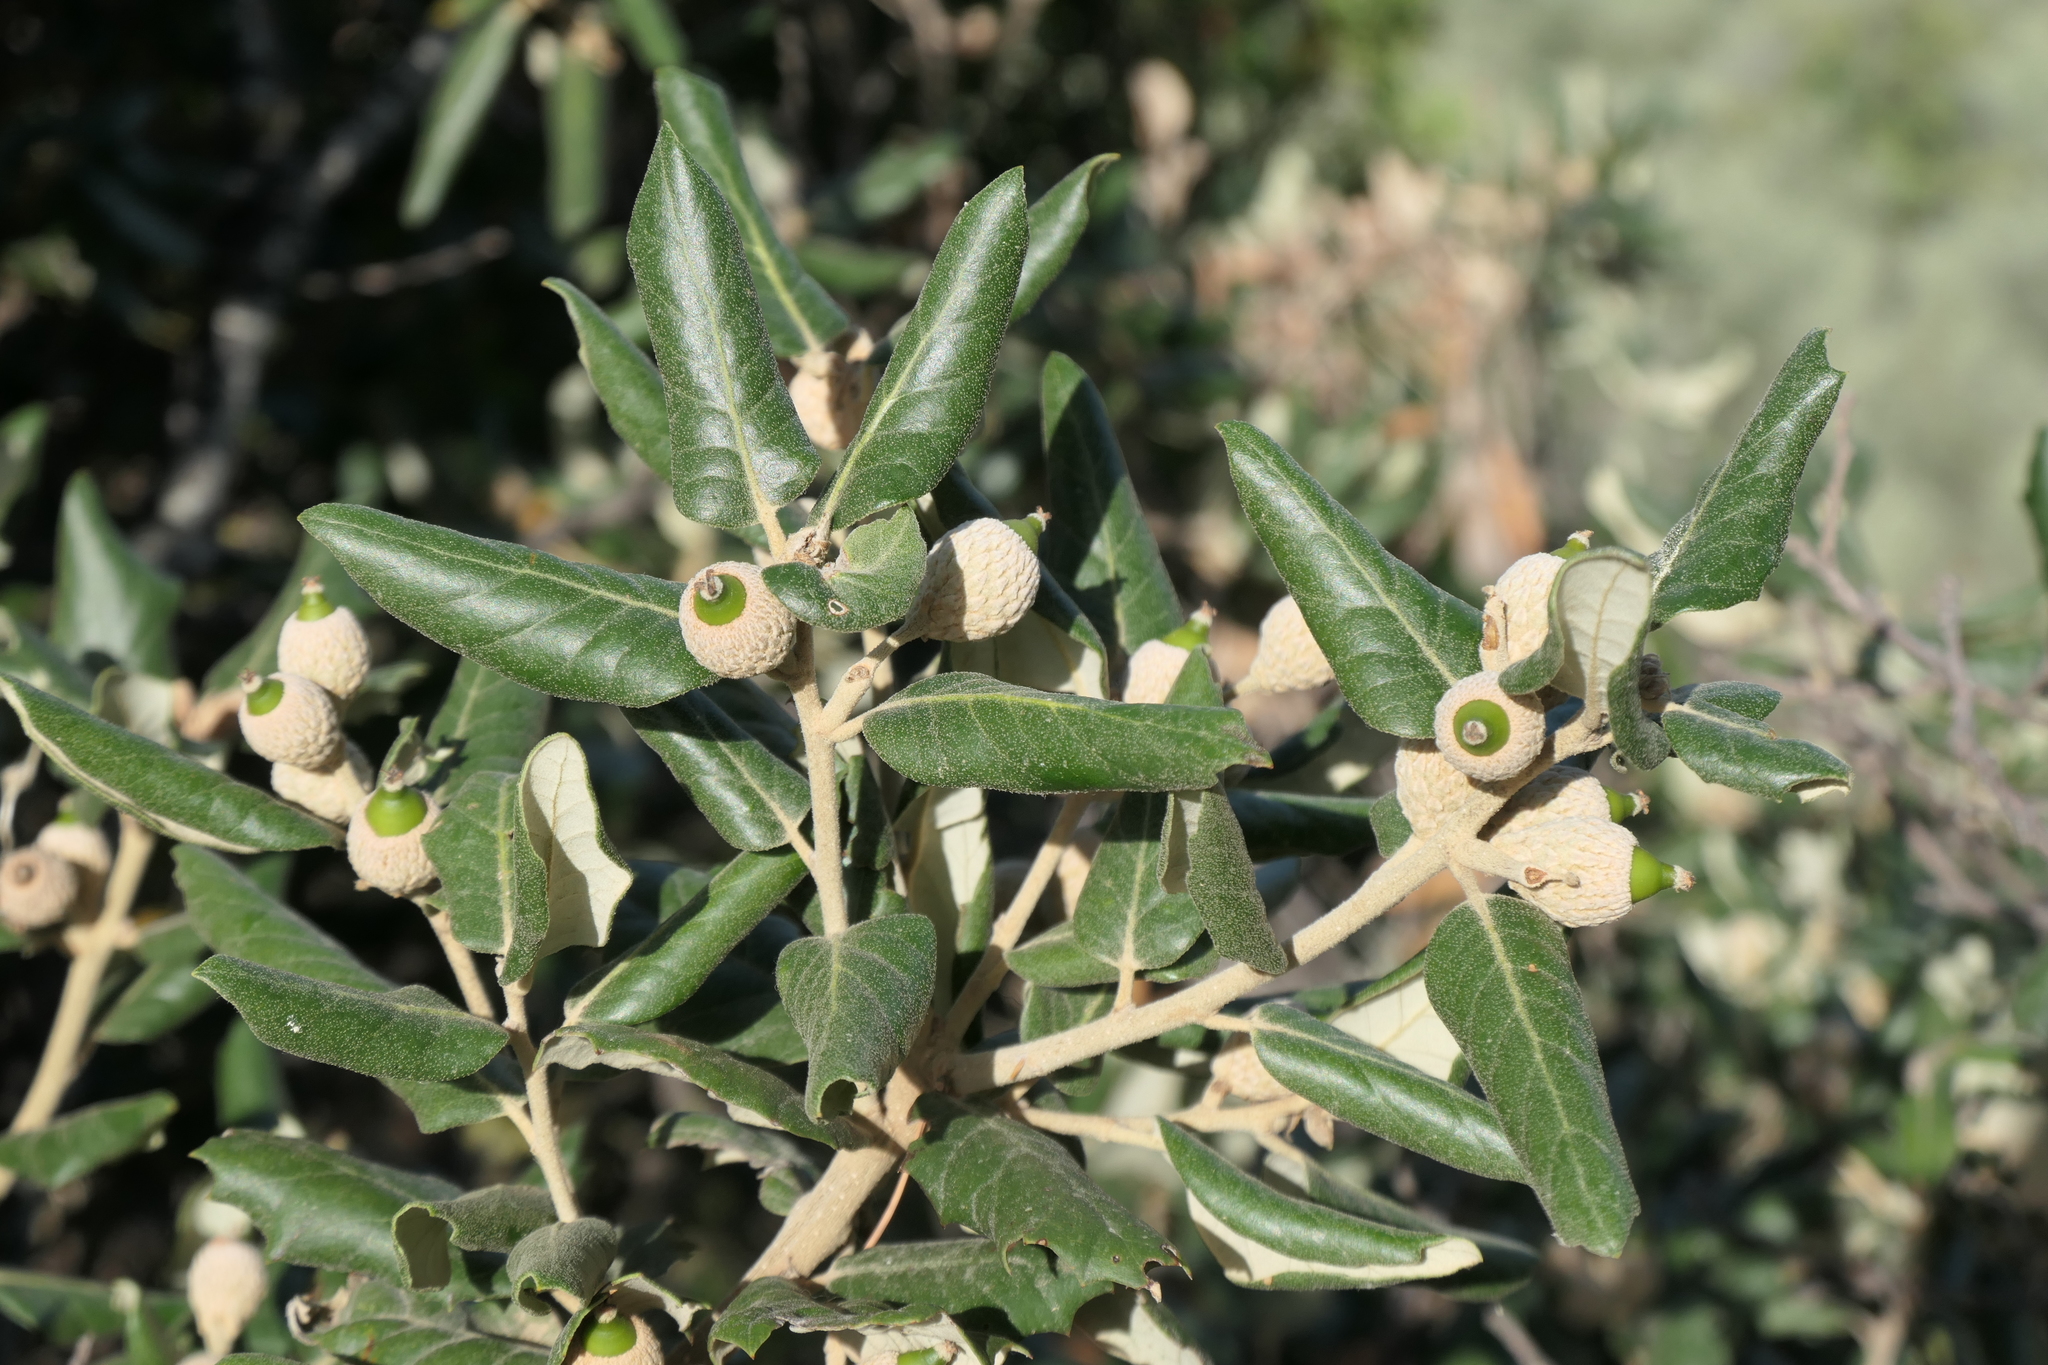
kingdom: Plantae
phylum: Tracheophyta
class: Magnoliopsida
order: Fagales
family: Fagaceae
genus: Quercus
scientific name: Quercus ilex
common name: Evergreen oak
